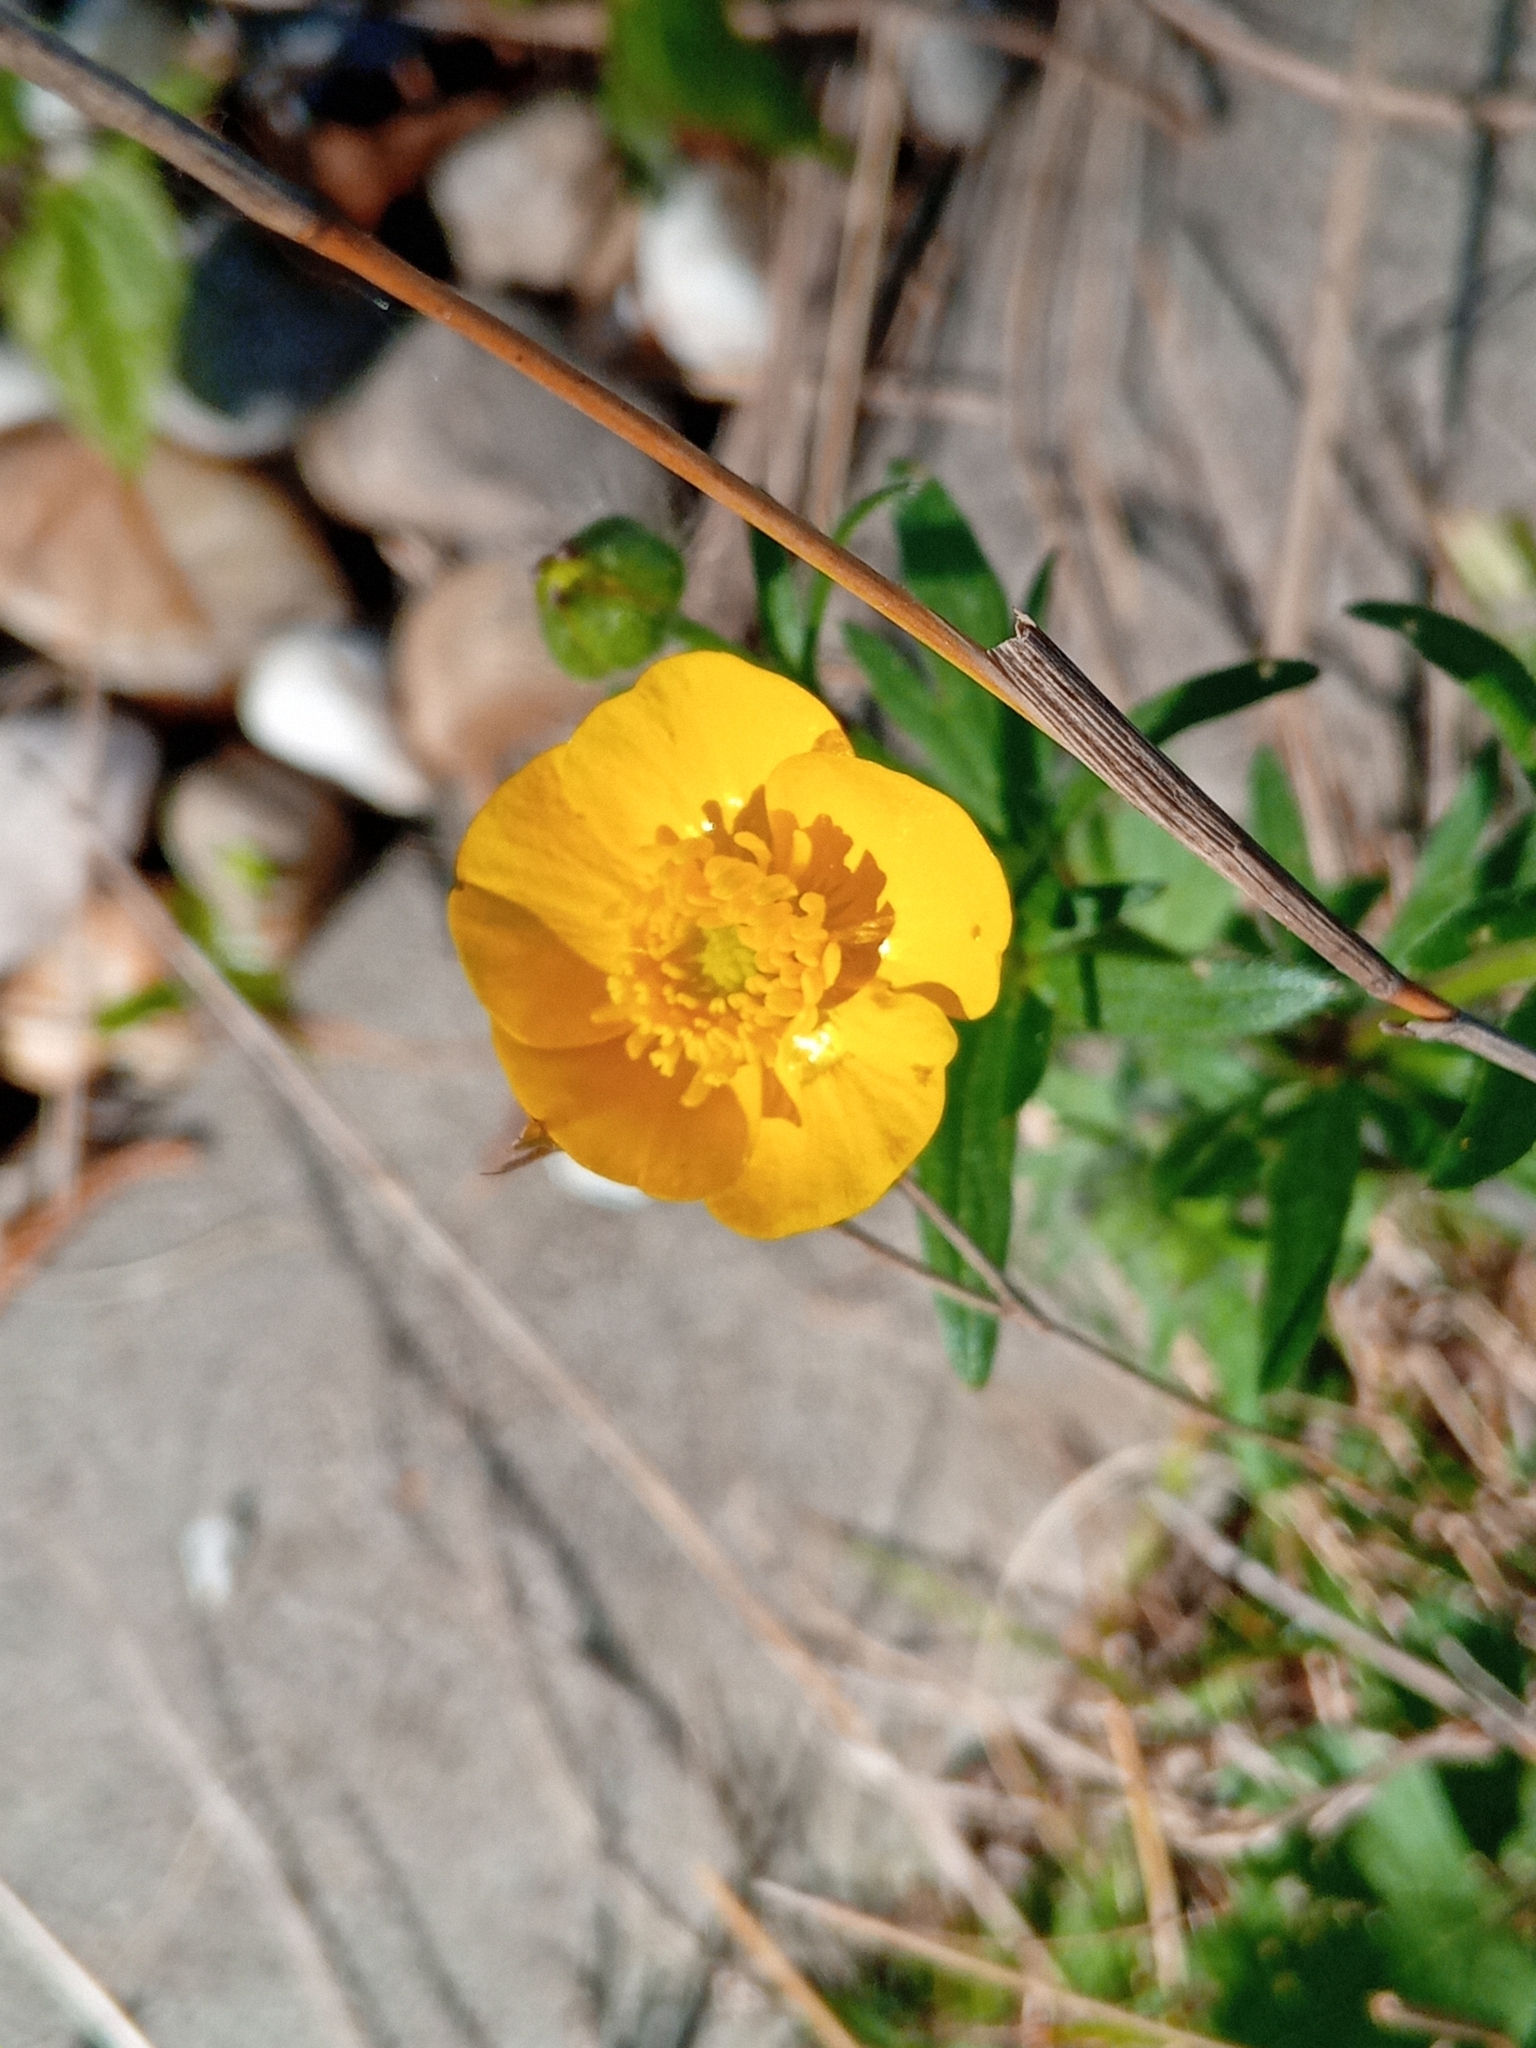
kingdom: Plantae
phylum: Tracheophyta
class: Magnoliopsida
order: Ranunculales
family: Ranunculaceae
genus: Ranunculus
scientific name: Ranunculus bulbosus
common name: Bulbous buttercup
